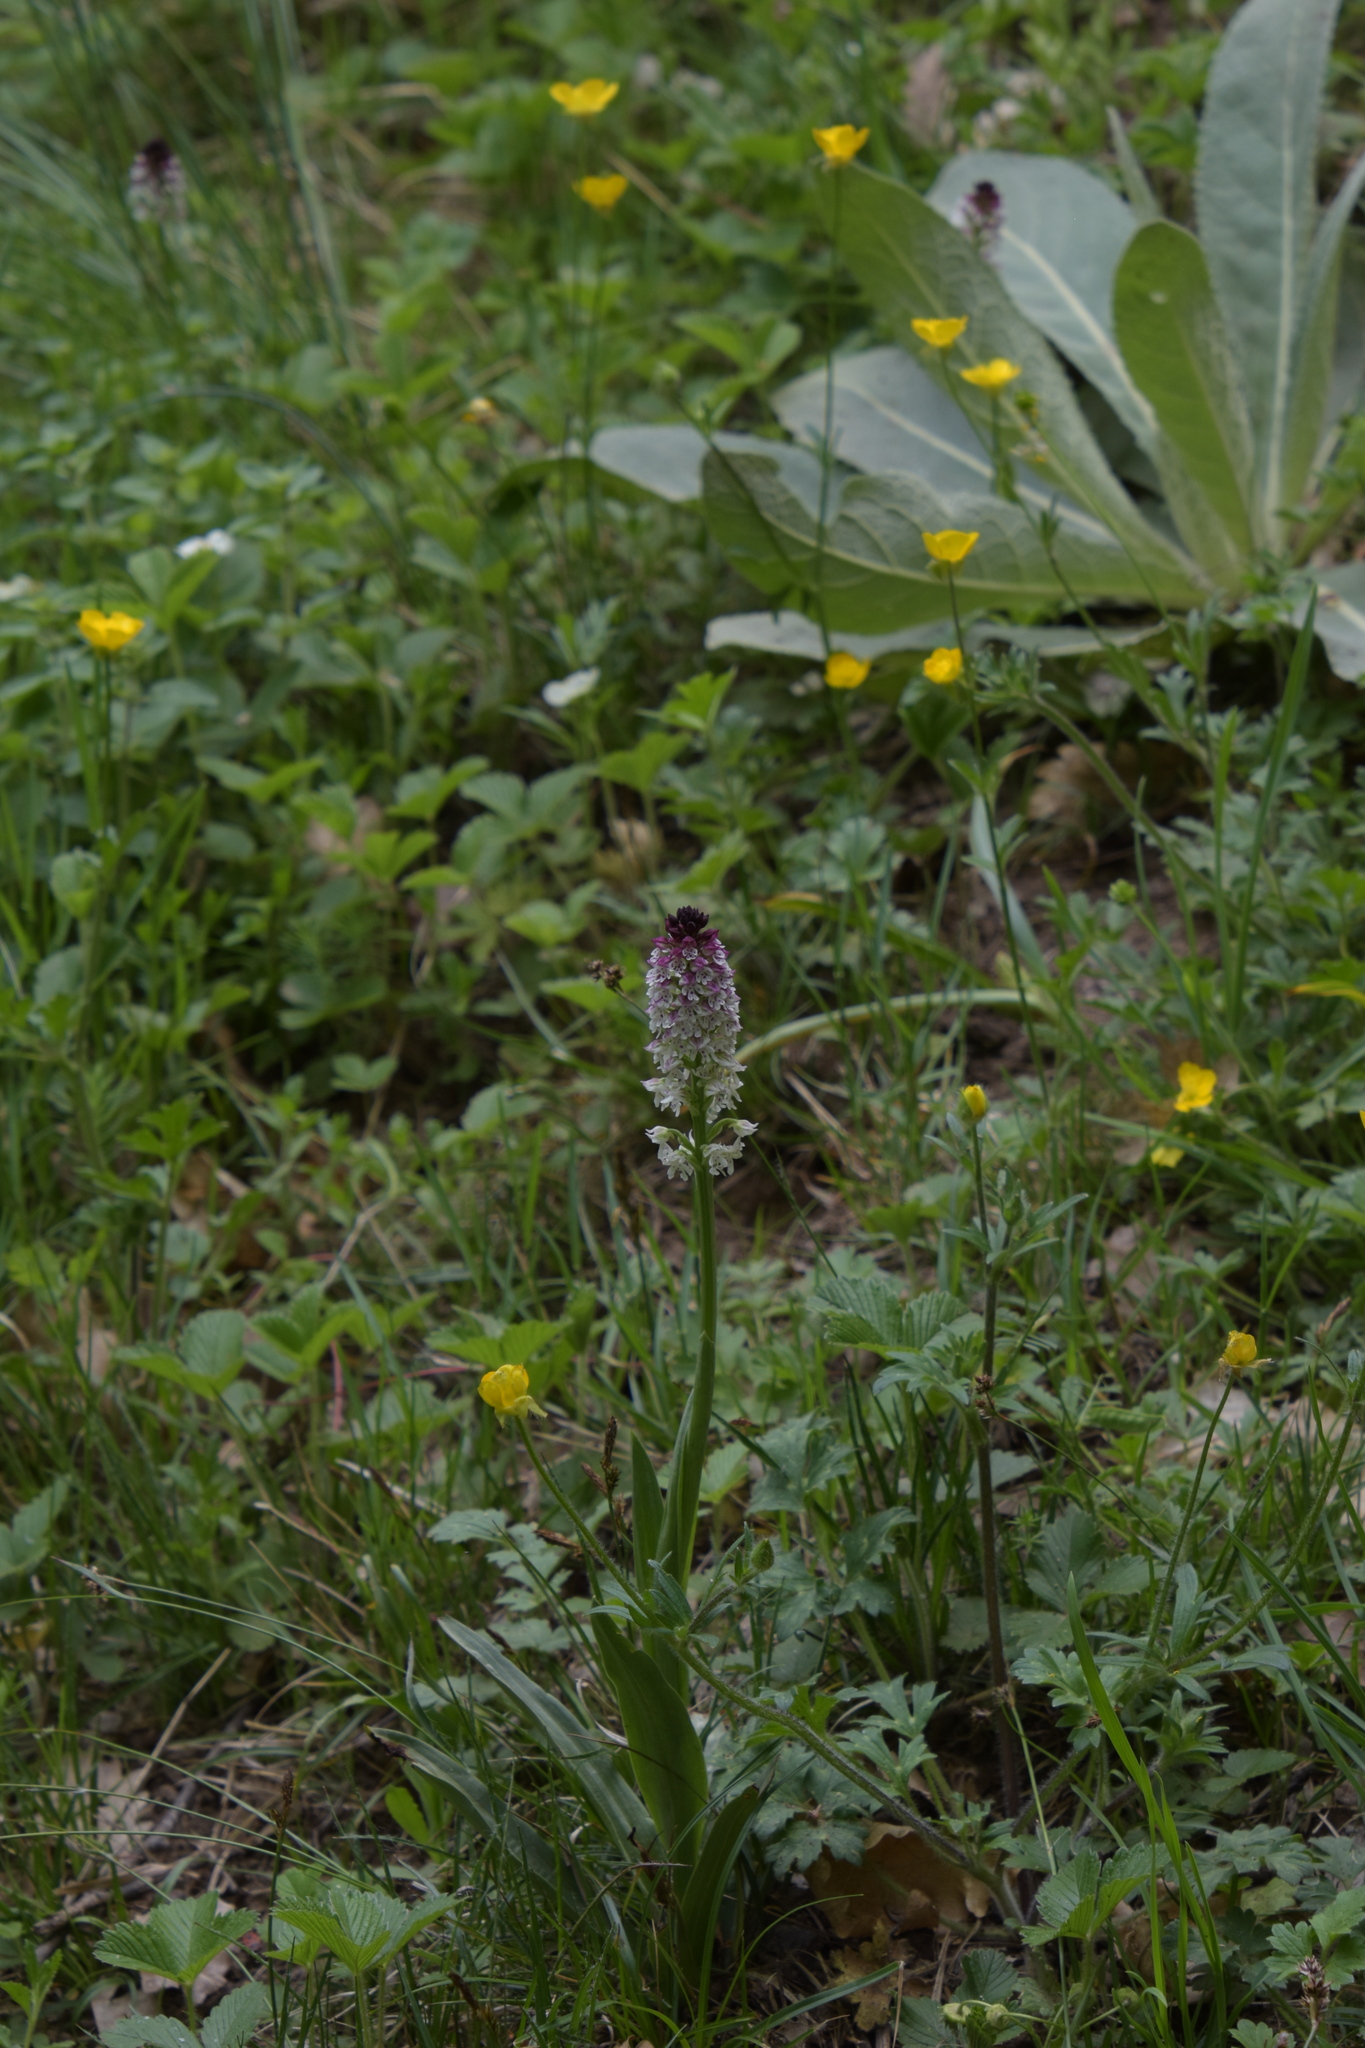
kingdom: Plantae
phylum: Tracheophyta
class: Liliopsida
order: Asparagales
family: Orchidaceae
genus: Neotinea
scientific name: Neotinea ustulata
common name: Burnt orchid
